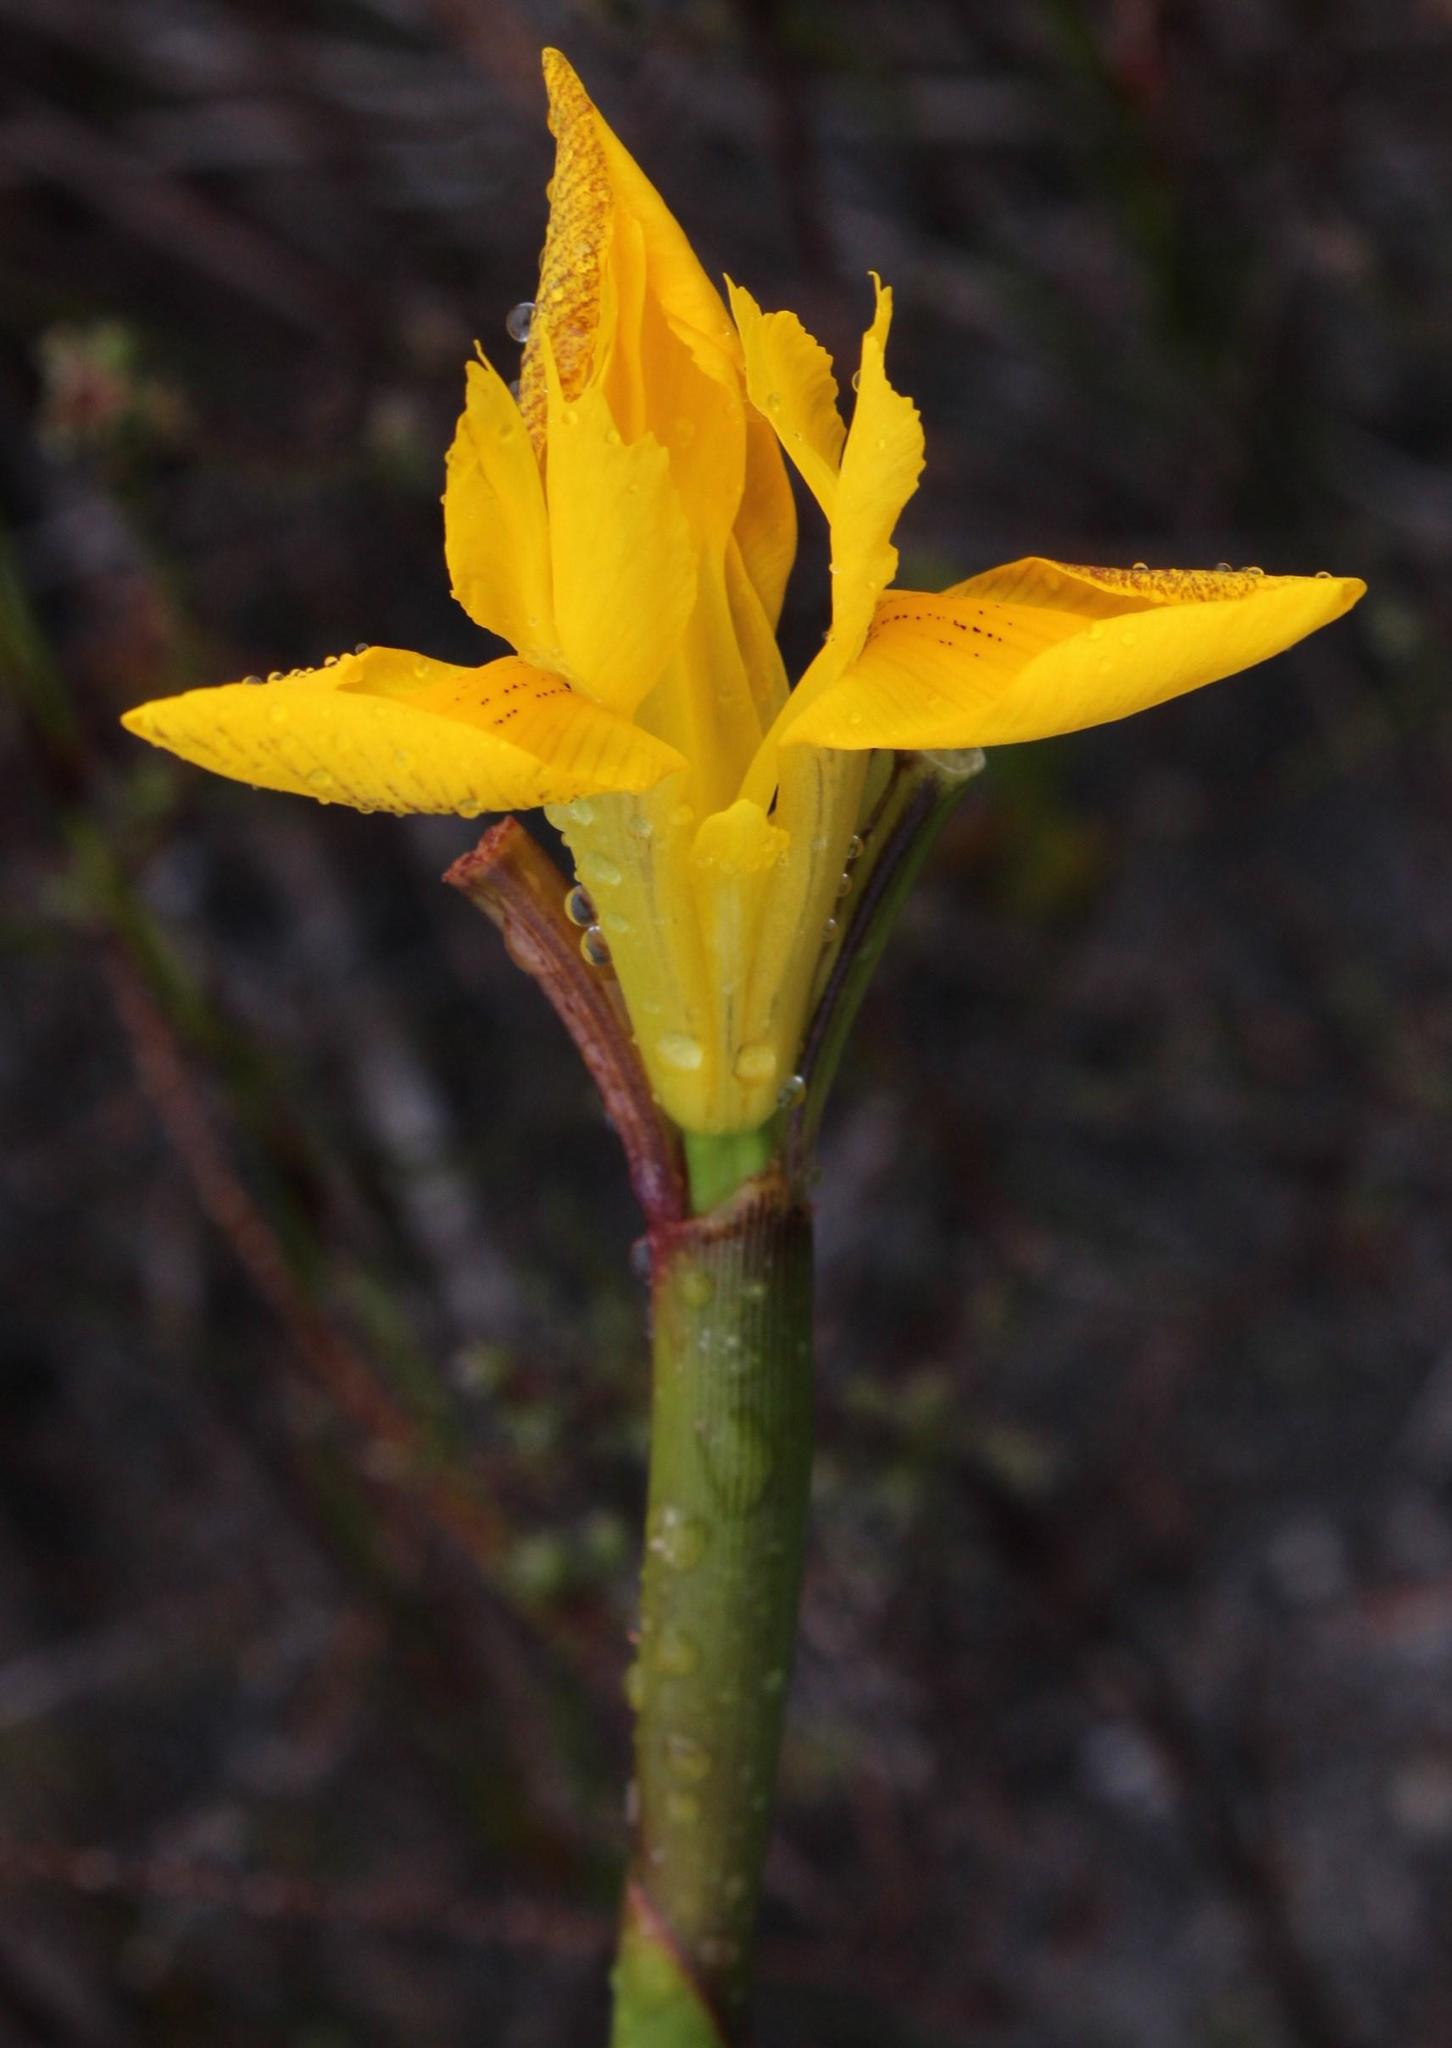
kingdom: Plantae
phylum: Tracheophyta
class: Liliopsida
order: Asparagales
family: Iridaceae
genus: Moraea
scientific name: Moraea neglecta
